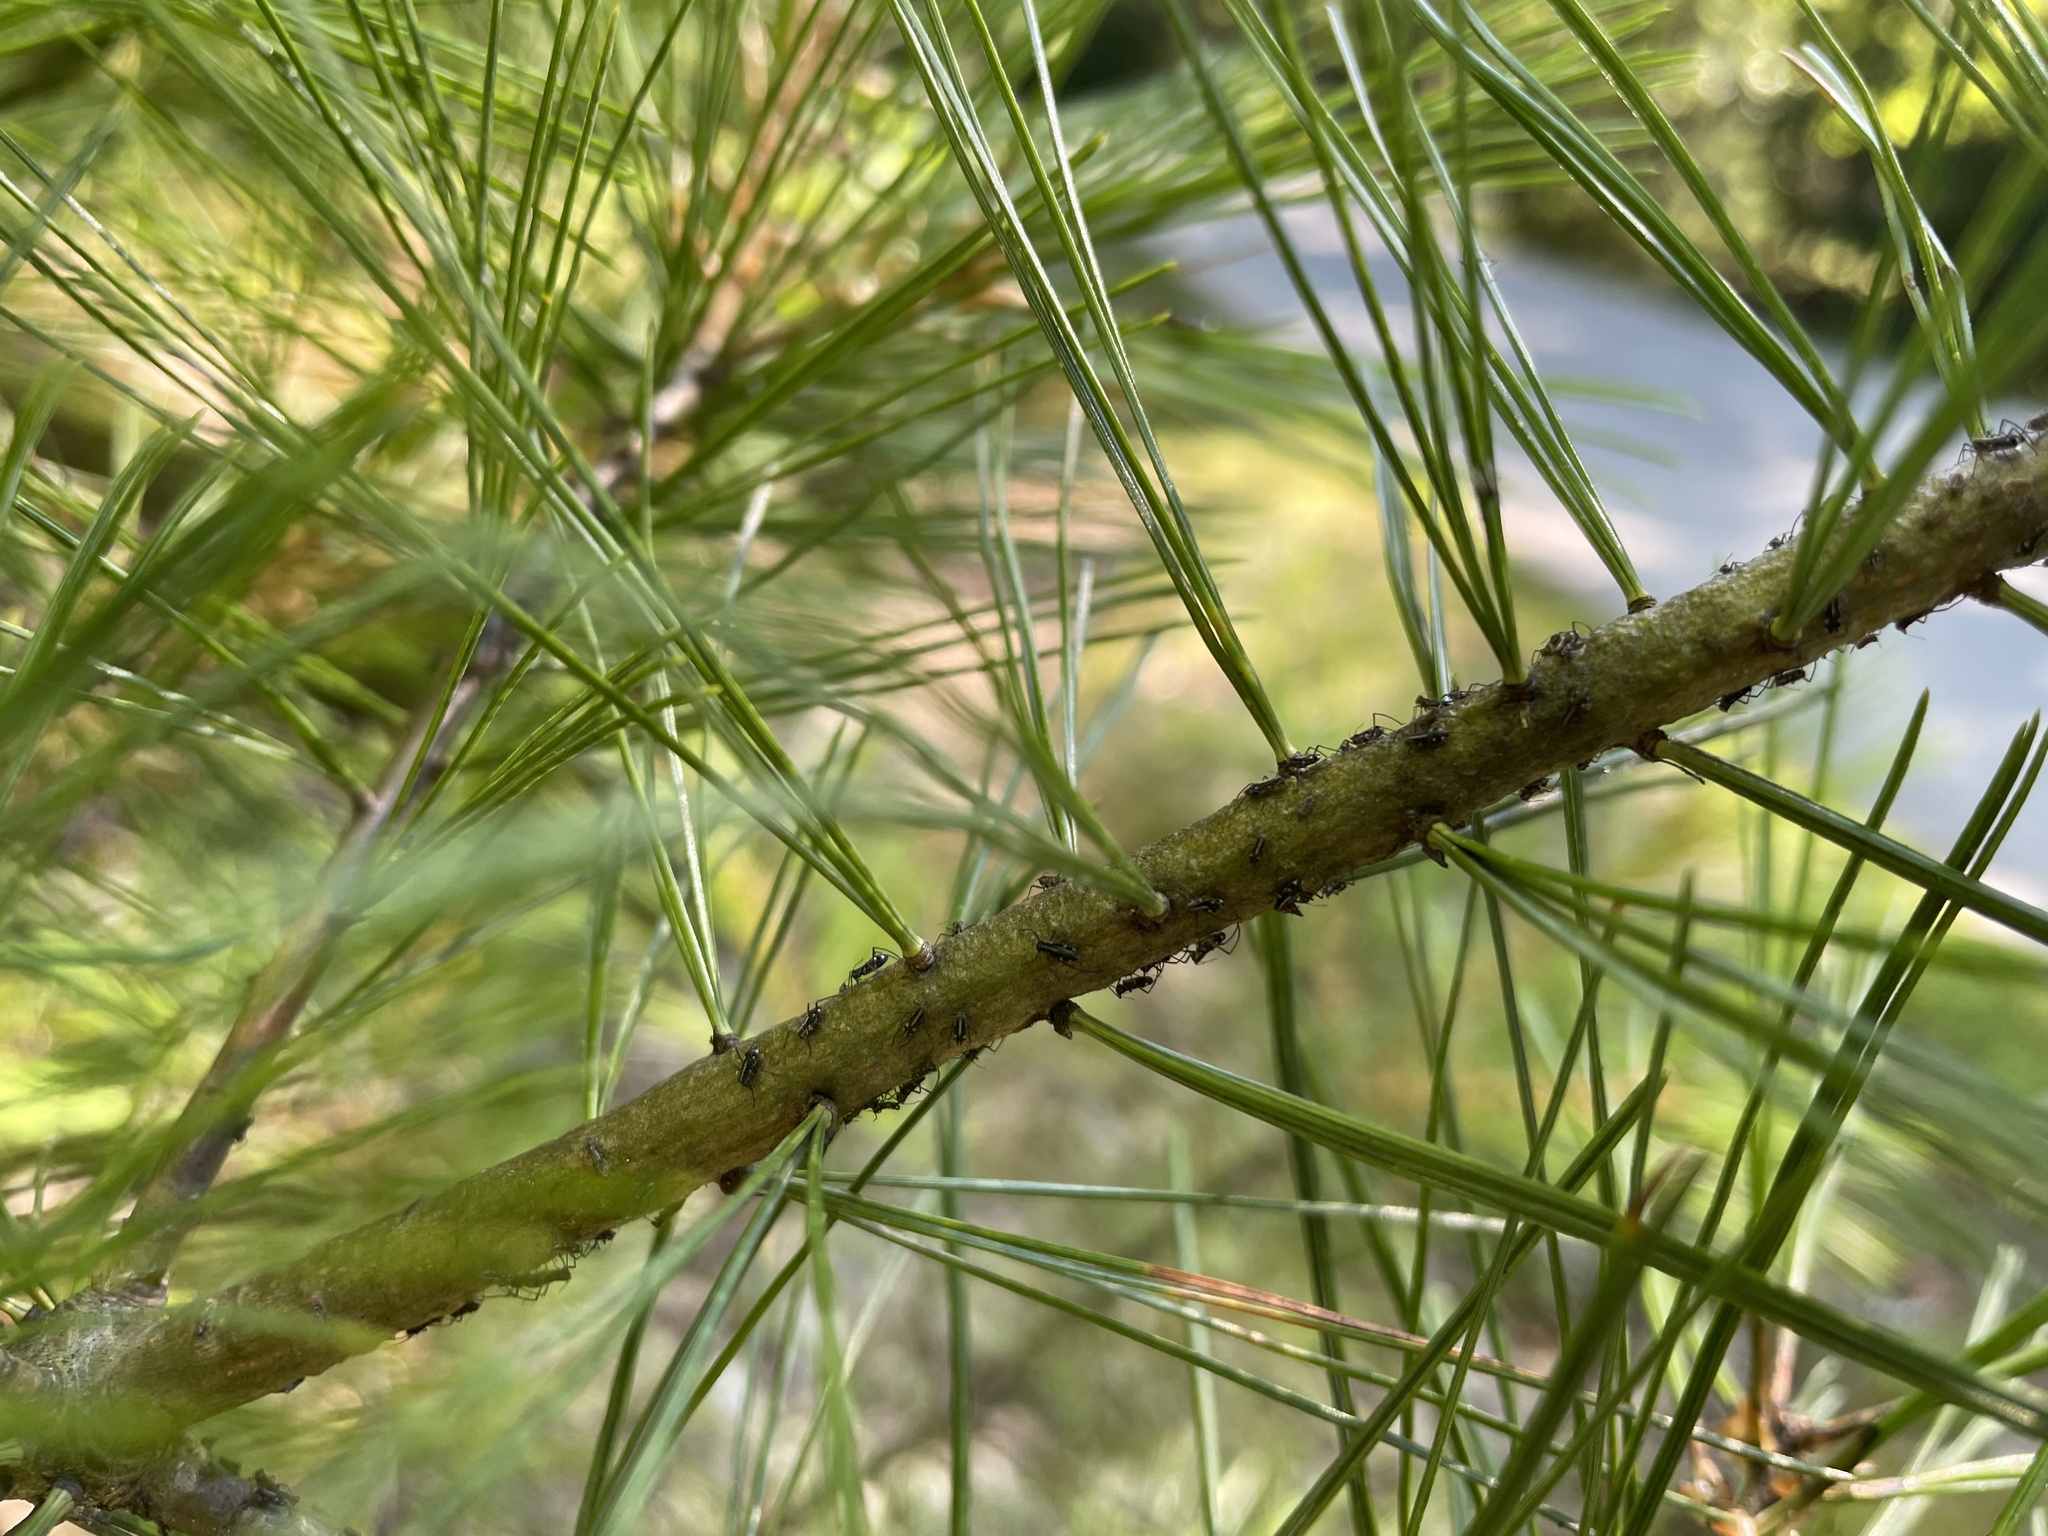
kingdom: Animalia
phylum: Arthropoda
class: Insecta
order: Hemiptera
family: Aphididae
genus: Cinara
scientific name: Cinara strobi
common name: White pine aphid
